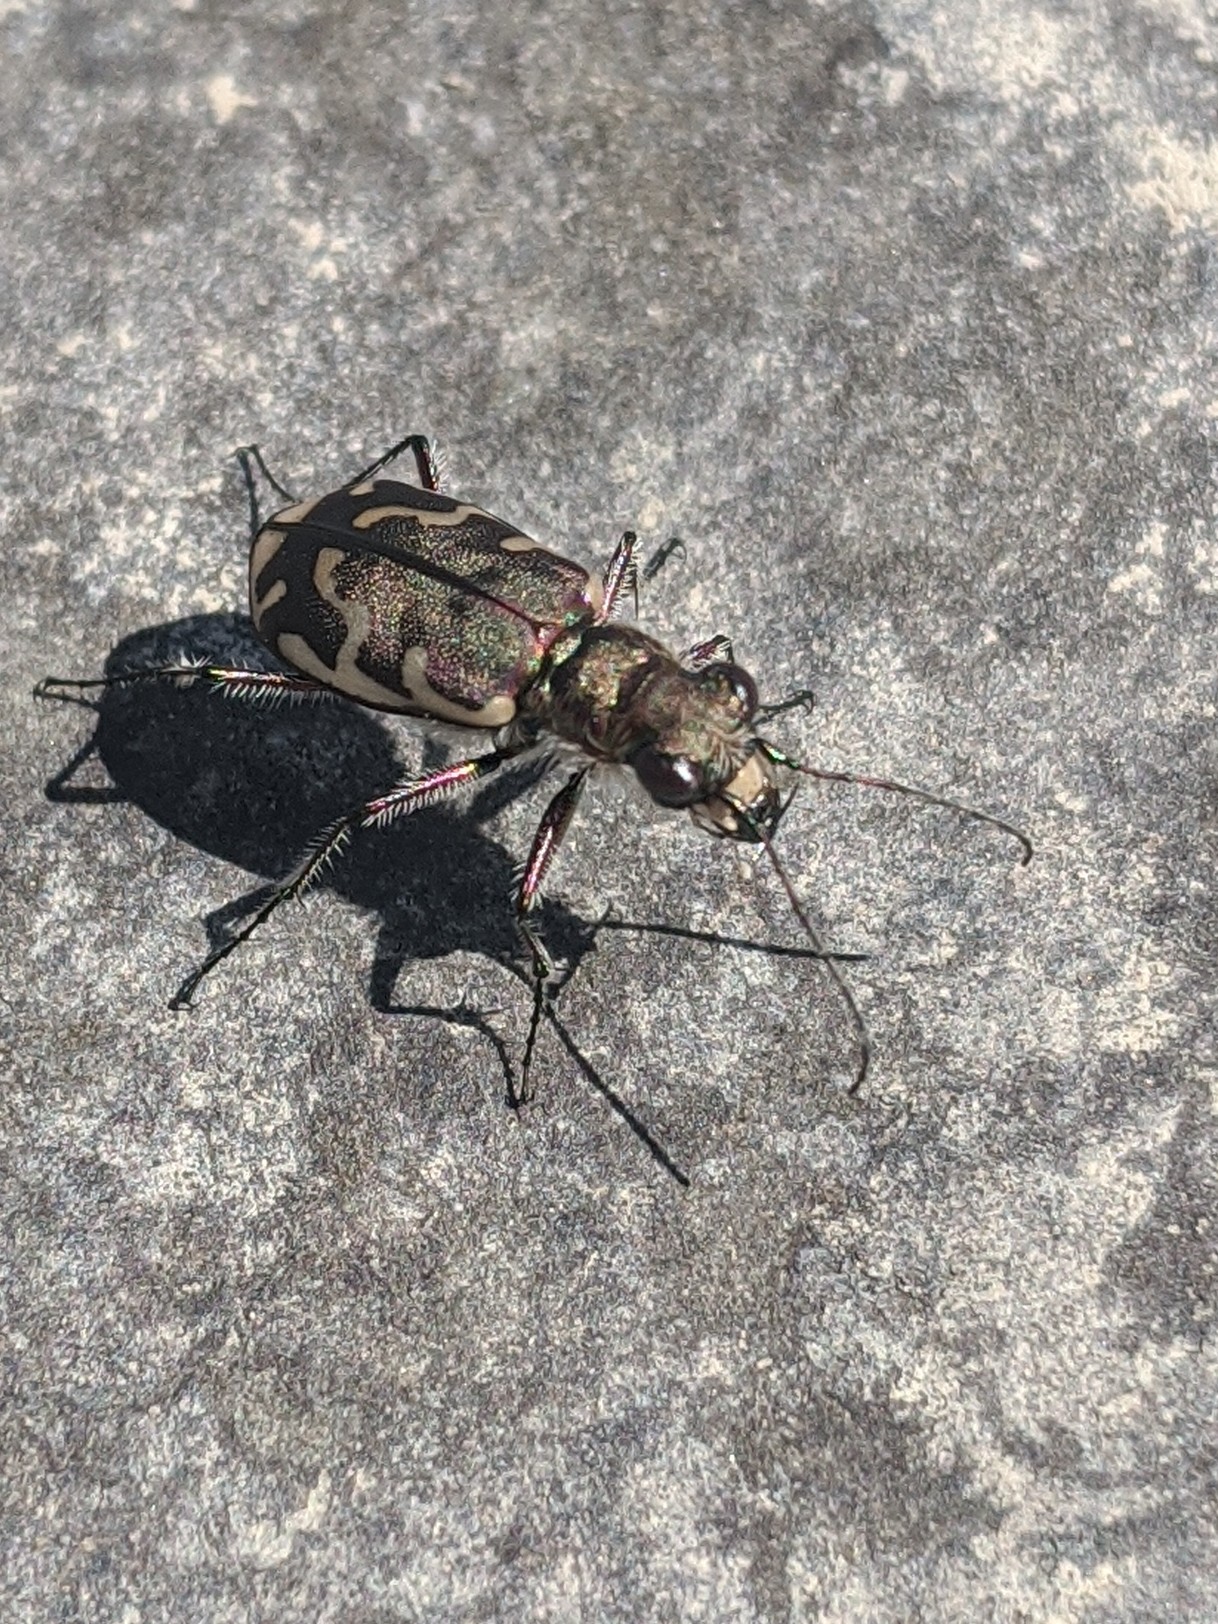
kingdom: Animalia
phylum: Arthropoda
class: Insecta
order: Coleoptera
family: Carabidae
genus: Cicindela
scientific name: Cicindela repanda
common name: Bronzed tiger beetle
